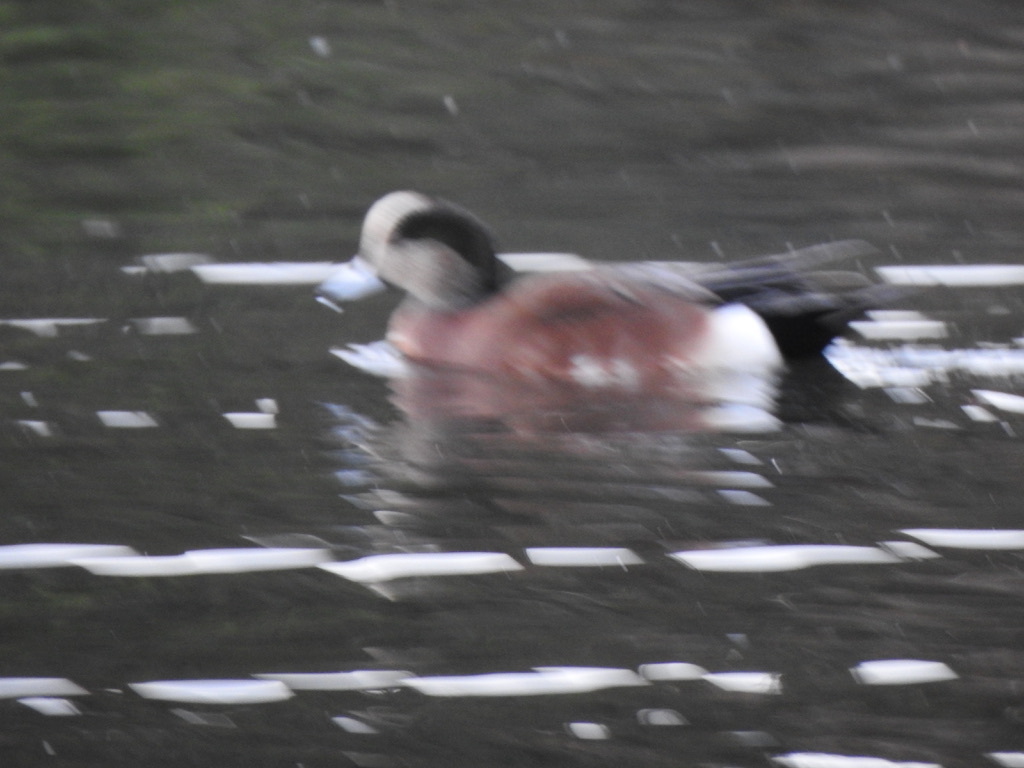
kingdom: Animalia
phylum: Chordata
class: Aves
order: Anseriformes
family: Anatidae
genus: Mareca
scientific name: Mareca americana
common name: American wigeon
